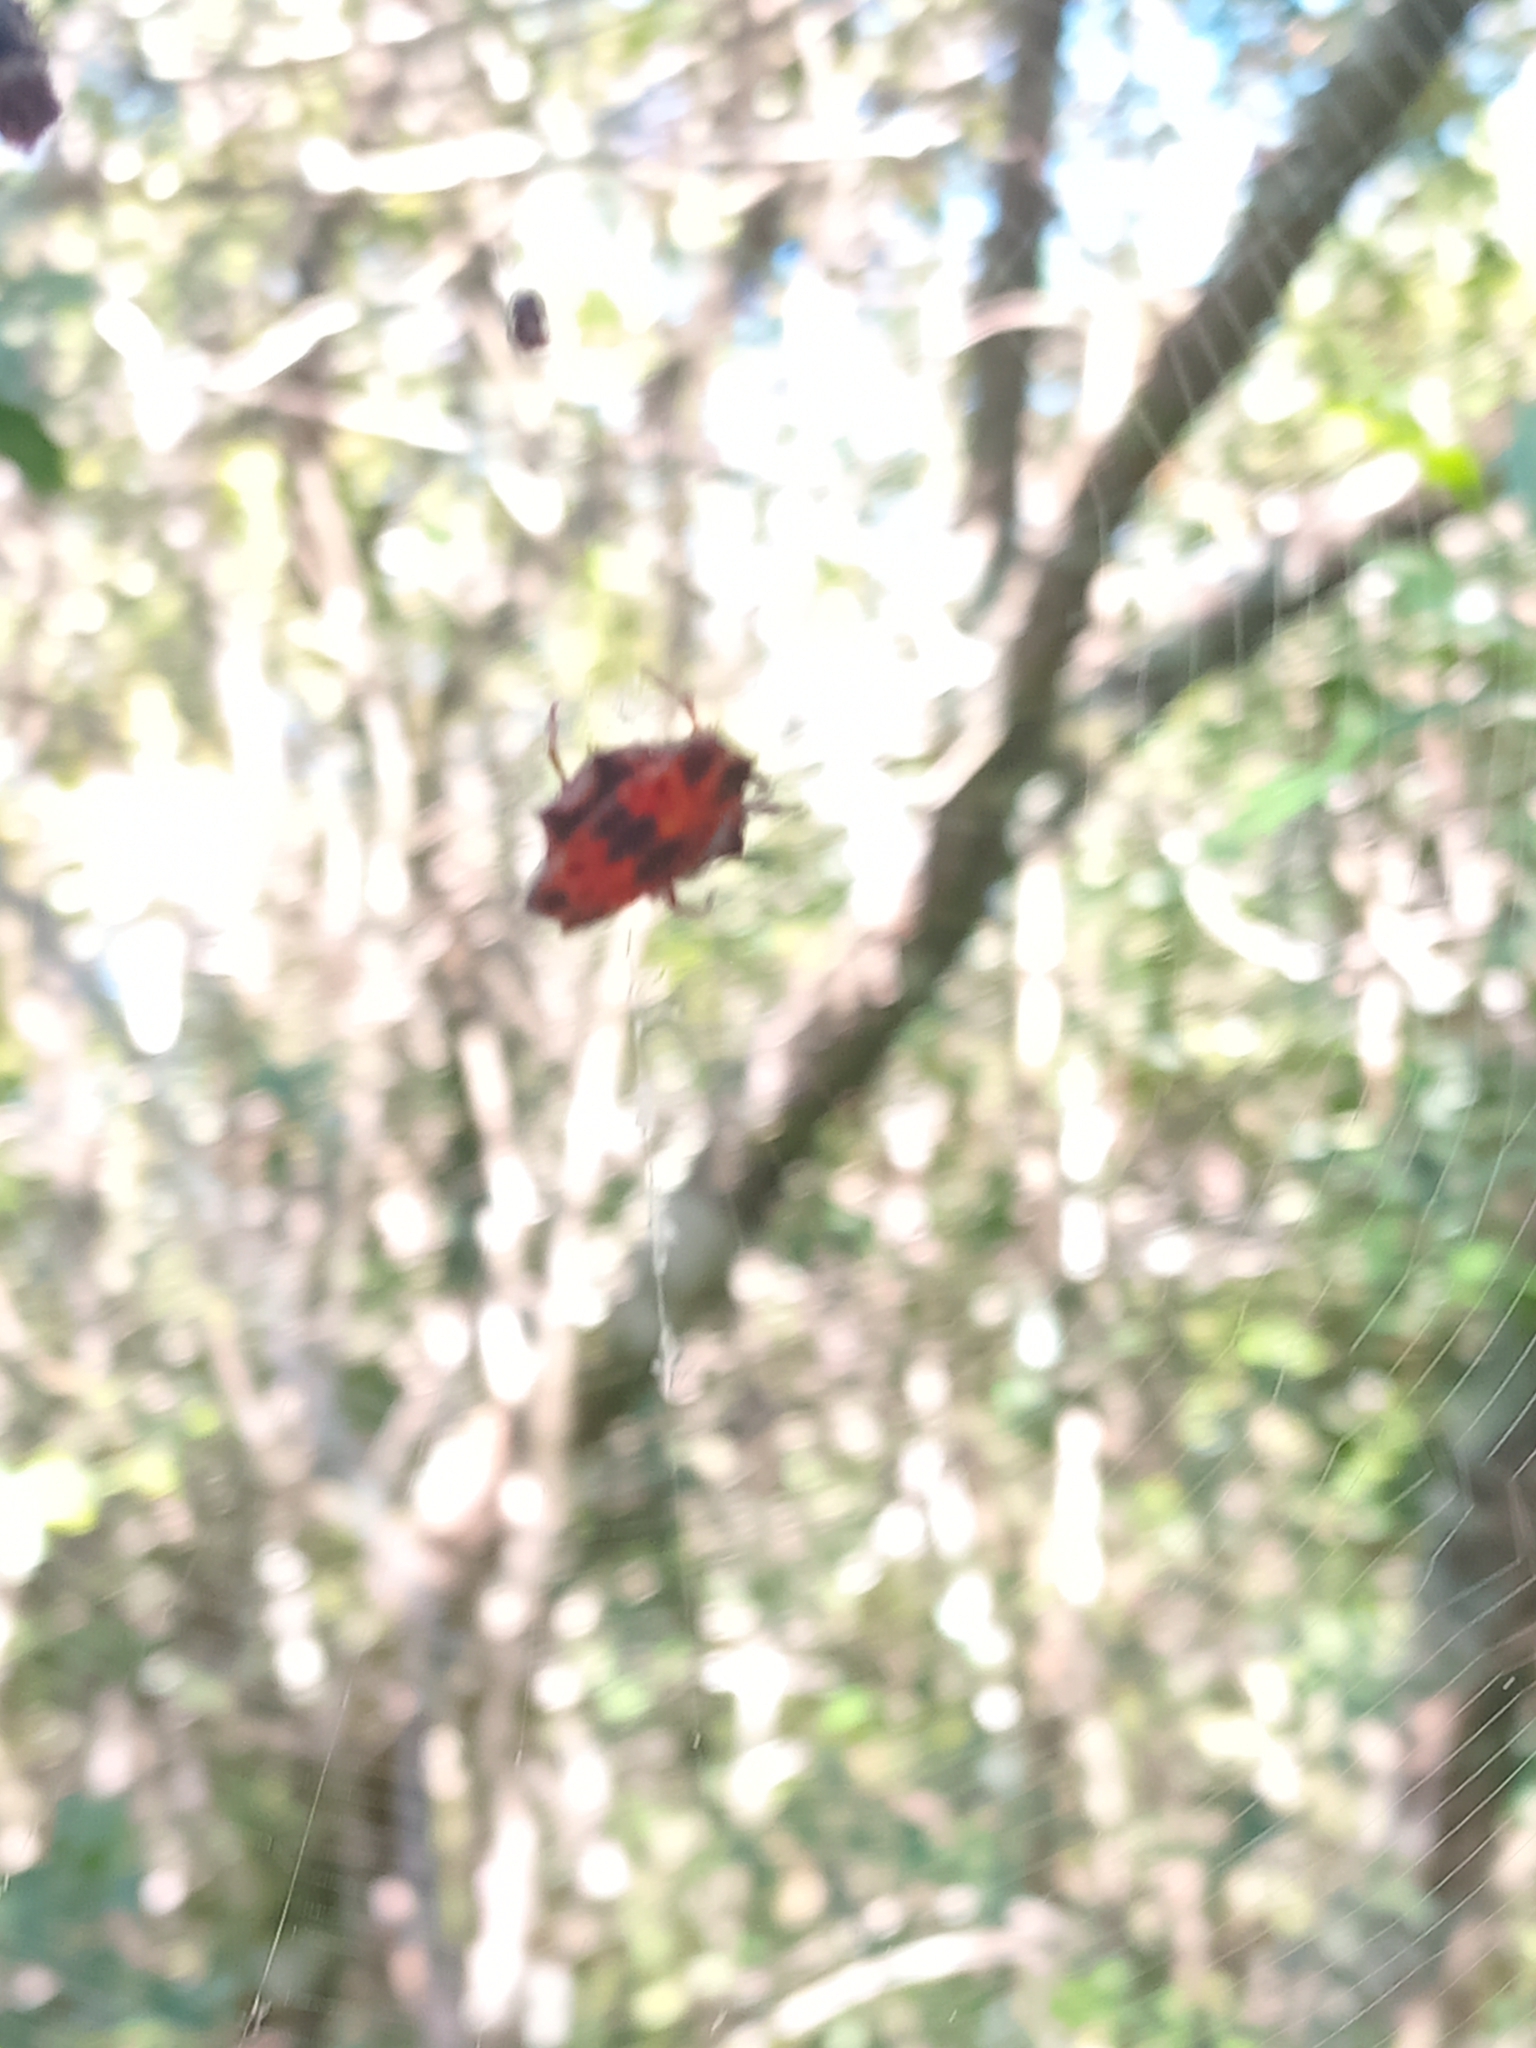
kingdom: Animalia
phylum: Arthropoda
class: Arachnida
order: Araneae
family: Araneidae
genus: Gasteracantha
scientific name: Gasteracantha cancriformis
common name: Orb weavers
